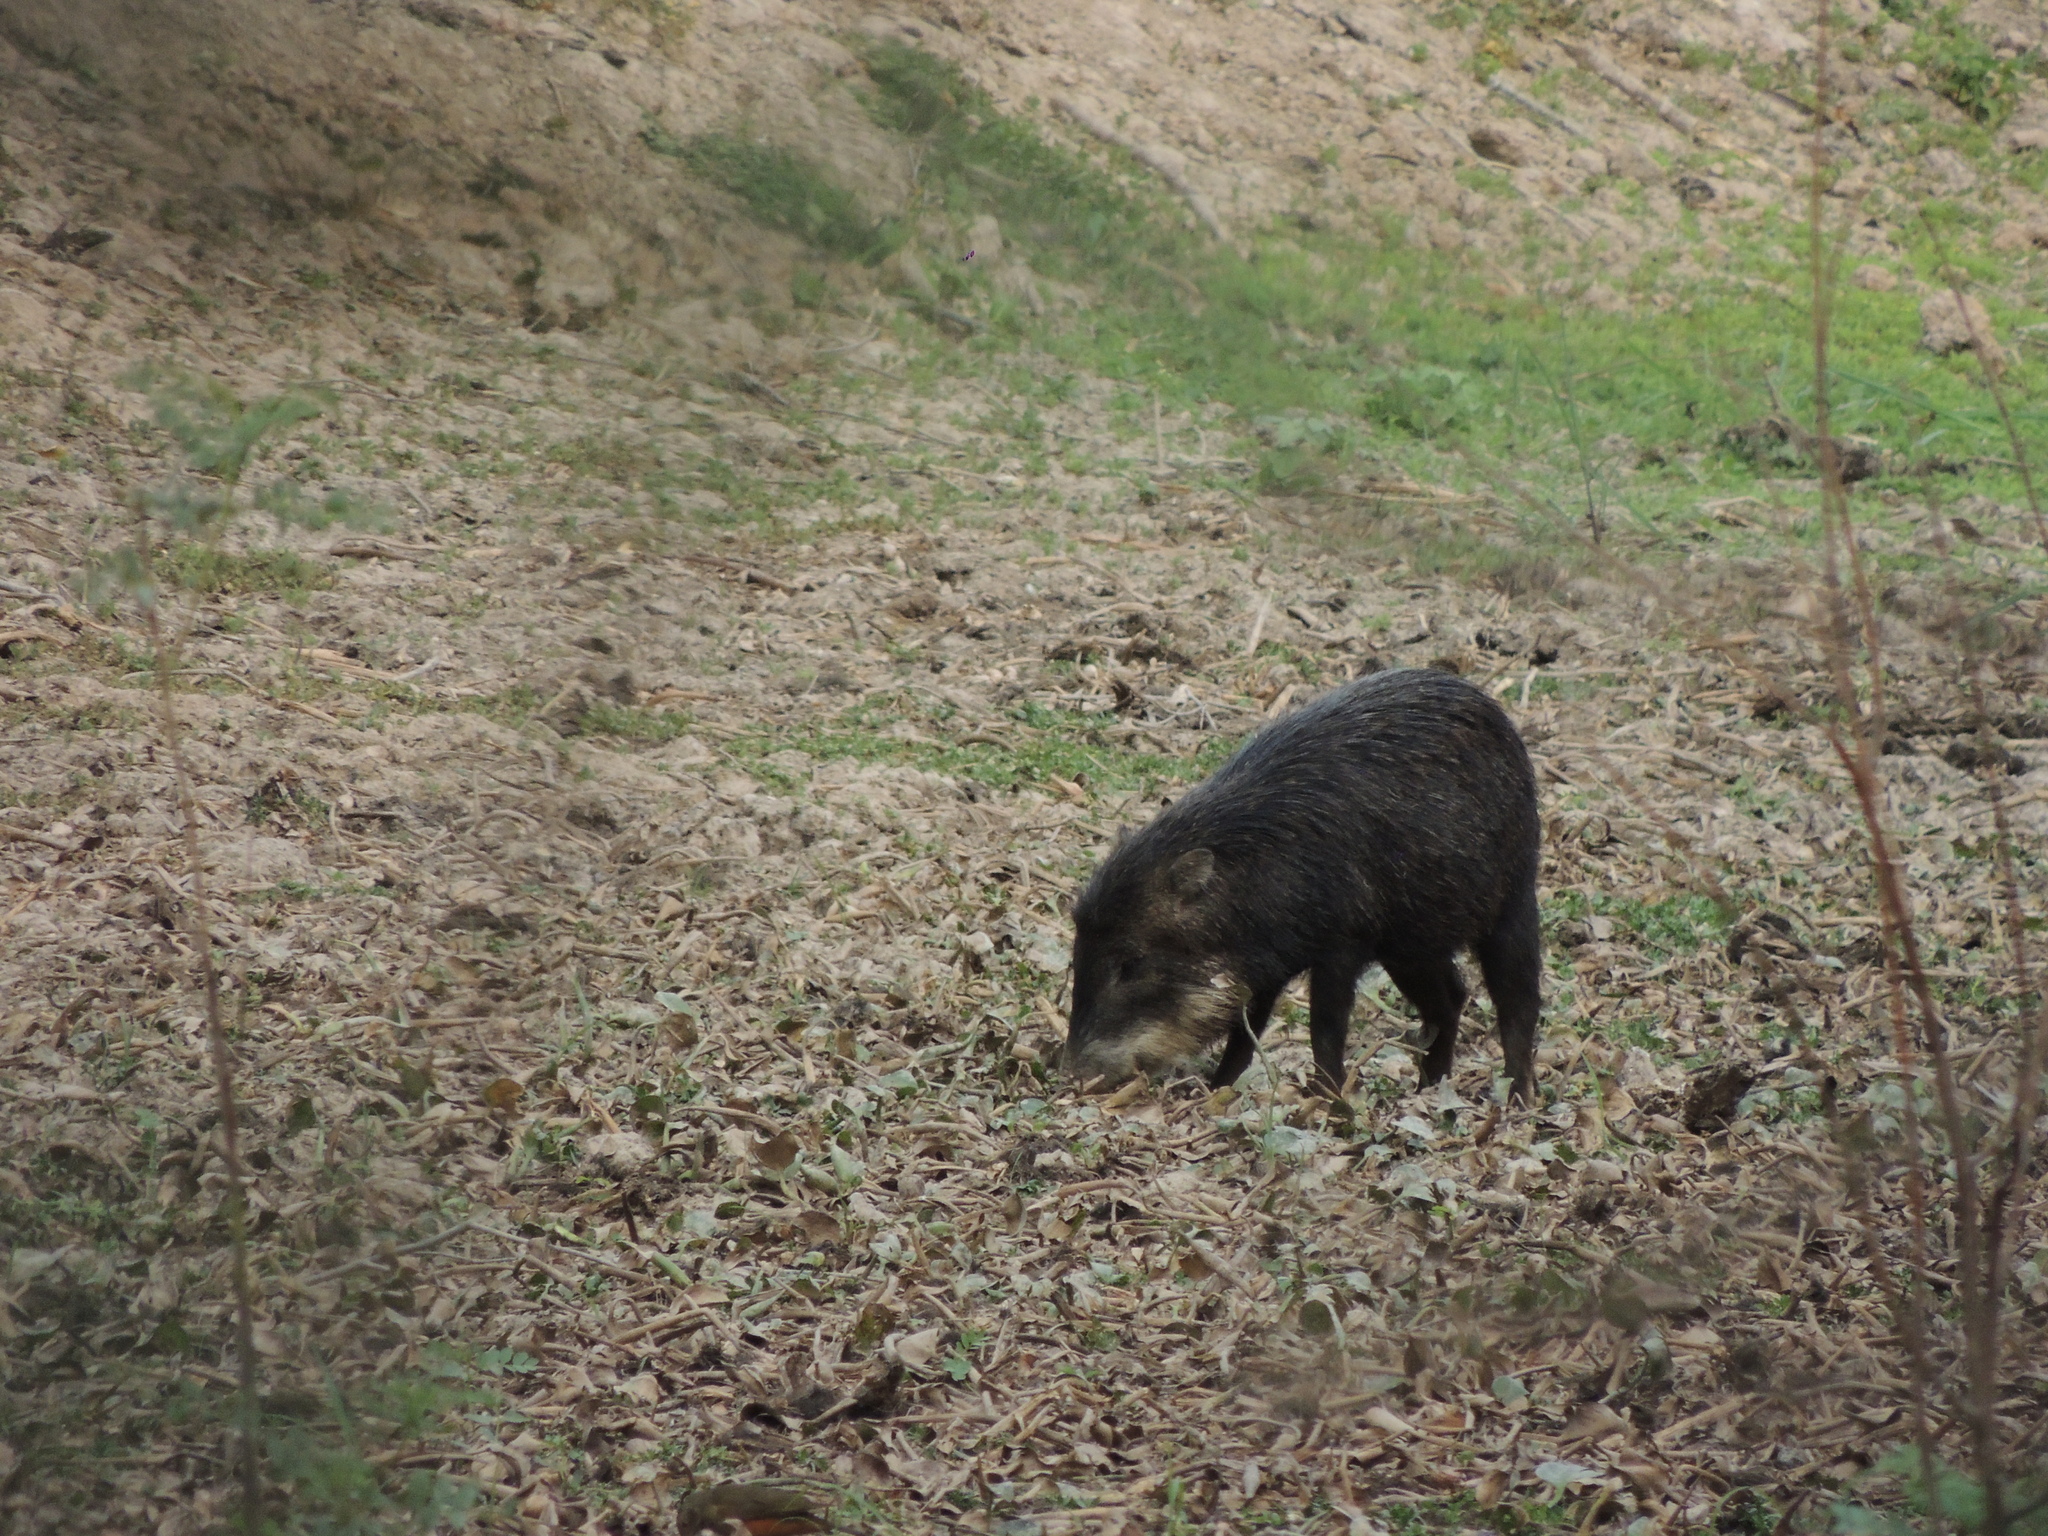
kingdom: Animalia
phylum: Chordata
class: Mammalia
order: Artiodactyla
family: Tayassuidae
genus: Tayassu
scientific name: Tayassu pecari
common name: White-lipped peccary
